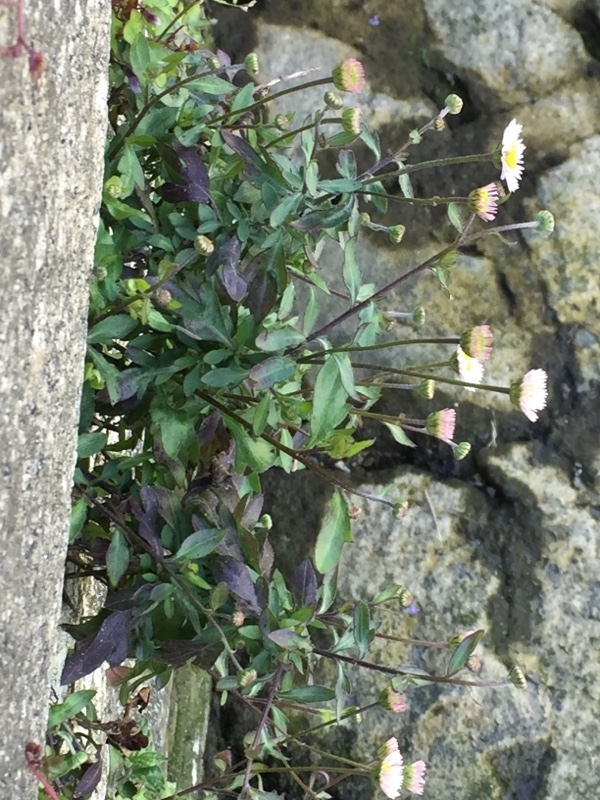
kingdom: Plantae
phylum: Tracheophyta
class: Magnoliopsida
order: Asterales
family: Asteraceae
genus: Erigeron
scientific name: Erigeron karvinskianus
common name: Mexican fleabane
